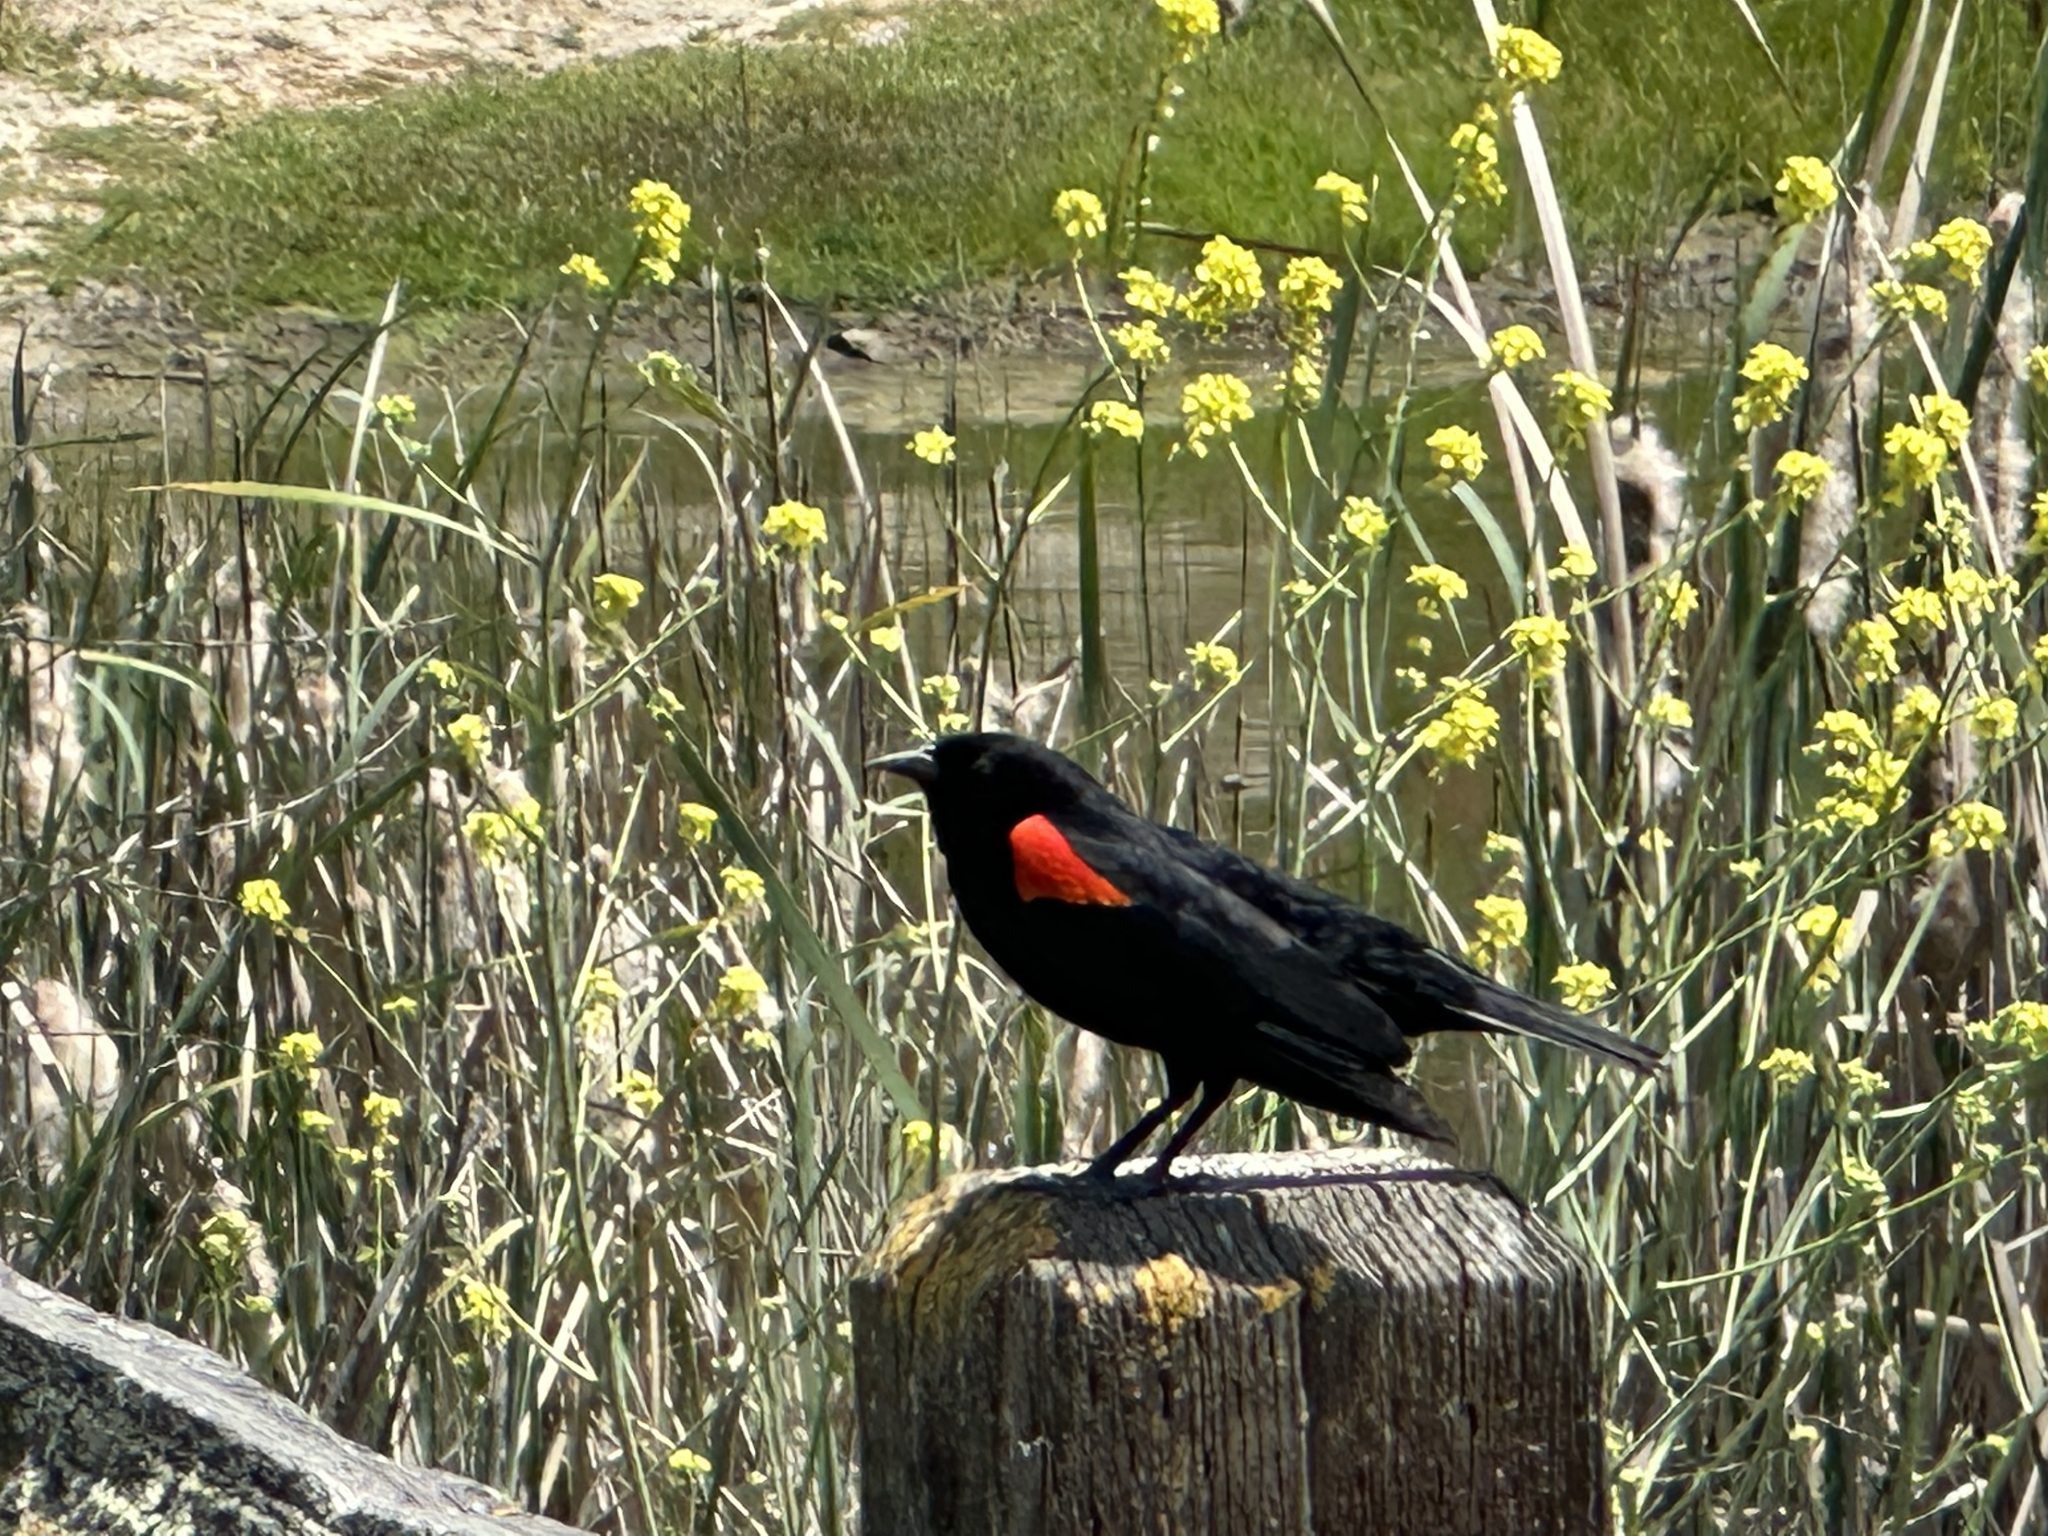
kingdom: Animalia
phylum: Chordata
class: Aves
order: Passeriformes
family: Icteridae
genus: Agelaius
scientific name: Agelaius phoeniceus
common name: Red-winged blackbird
